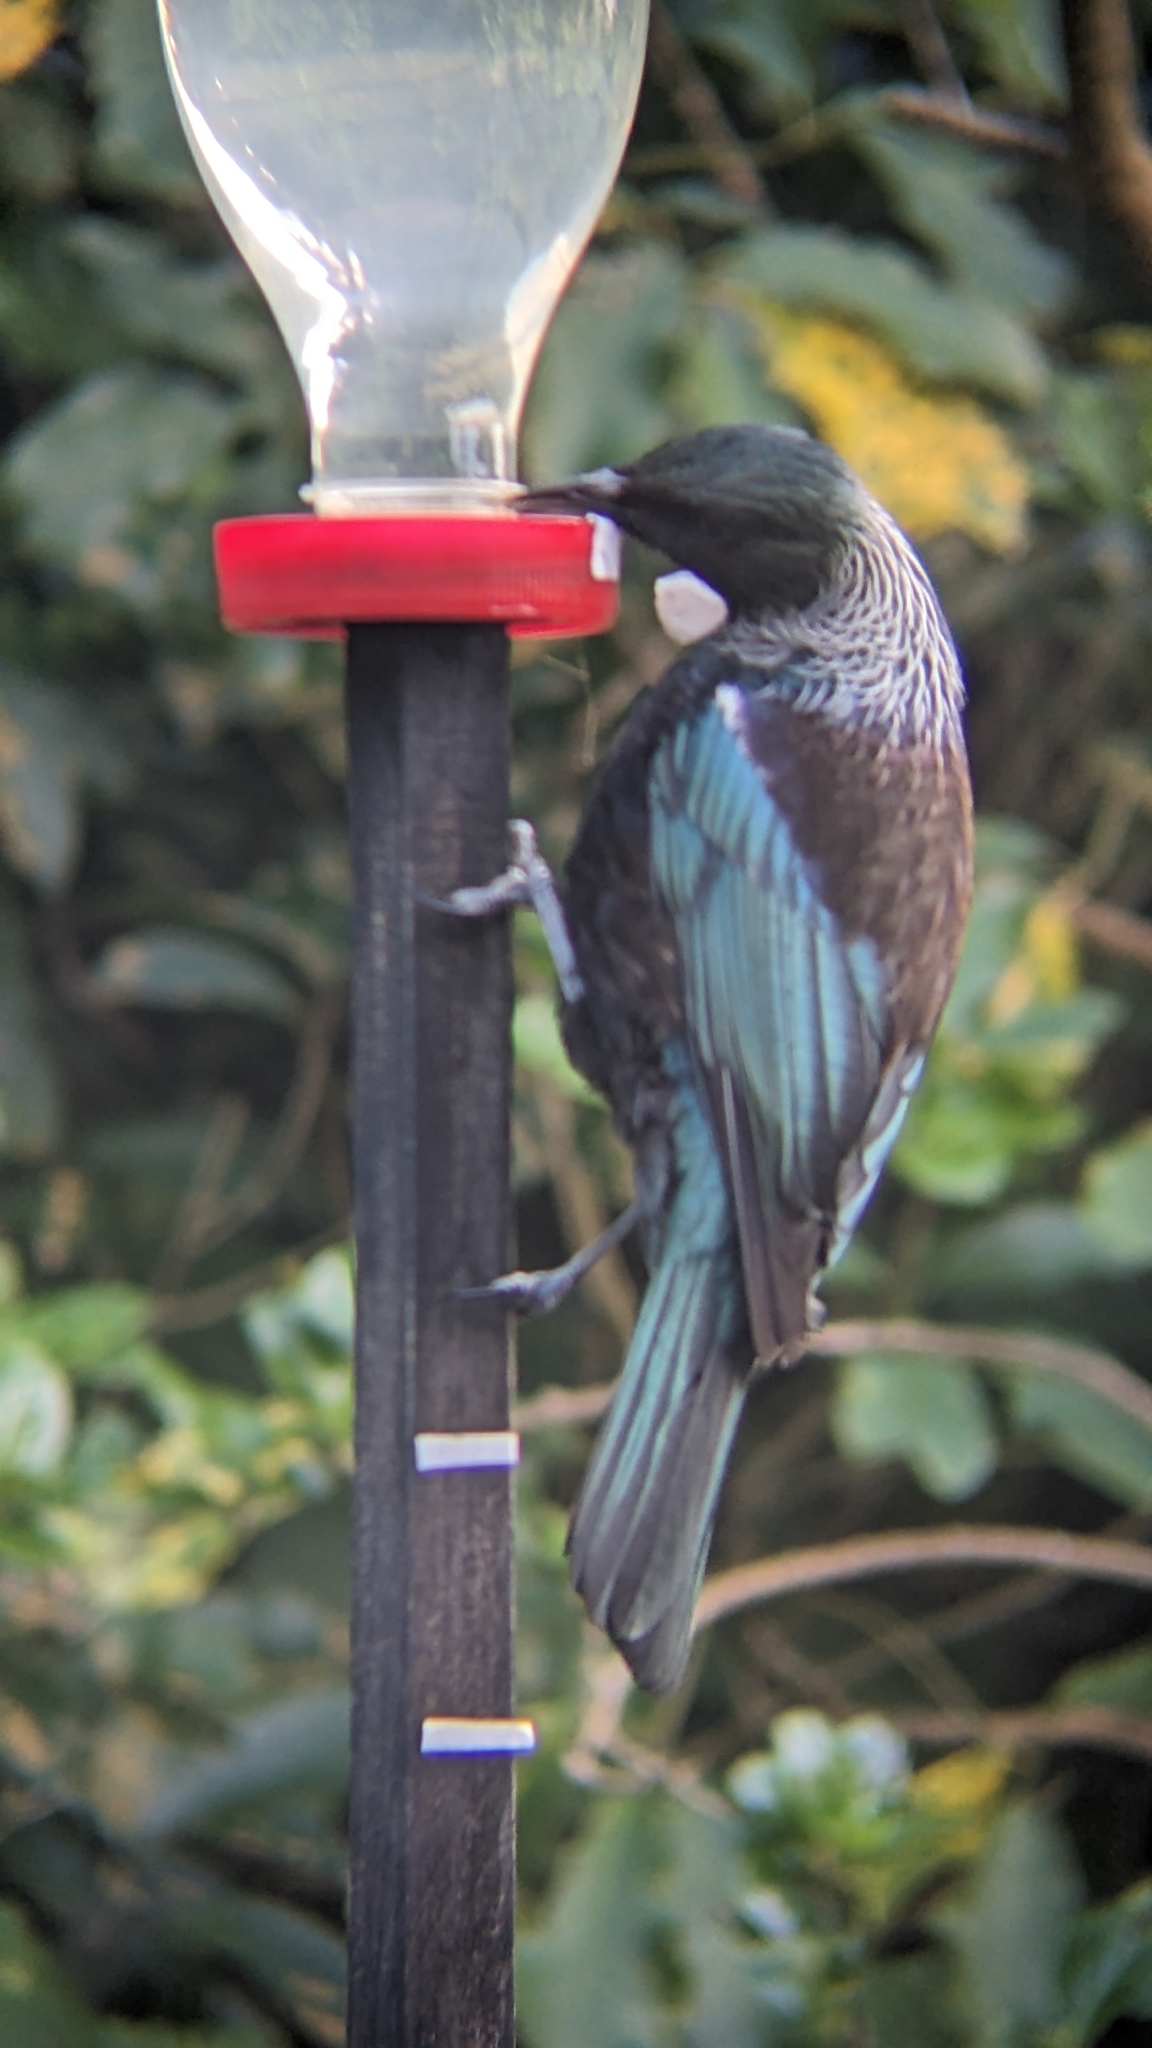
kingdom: Animalia
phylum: Chordata
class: Aves
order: Passeriformes
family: Meliphagidae
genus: Prosthemadera
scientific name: Prosthemadera novaeseelandiae
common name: Tui
